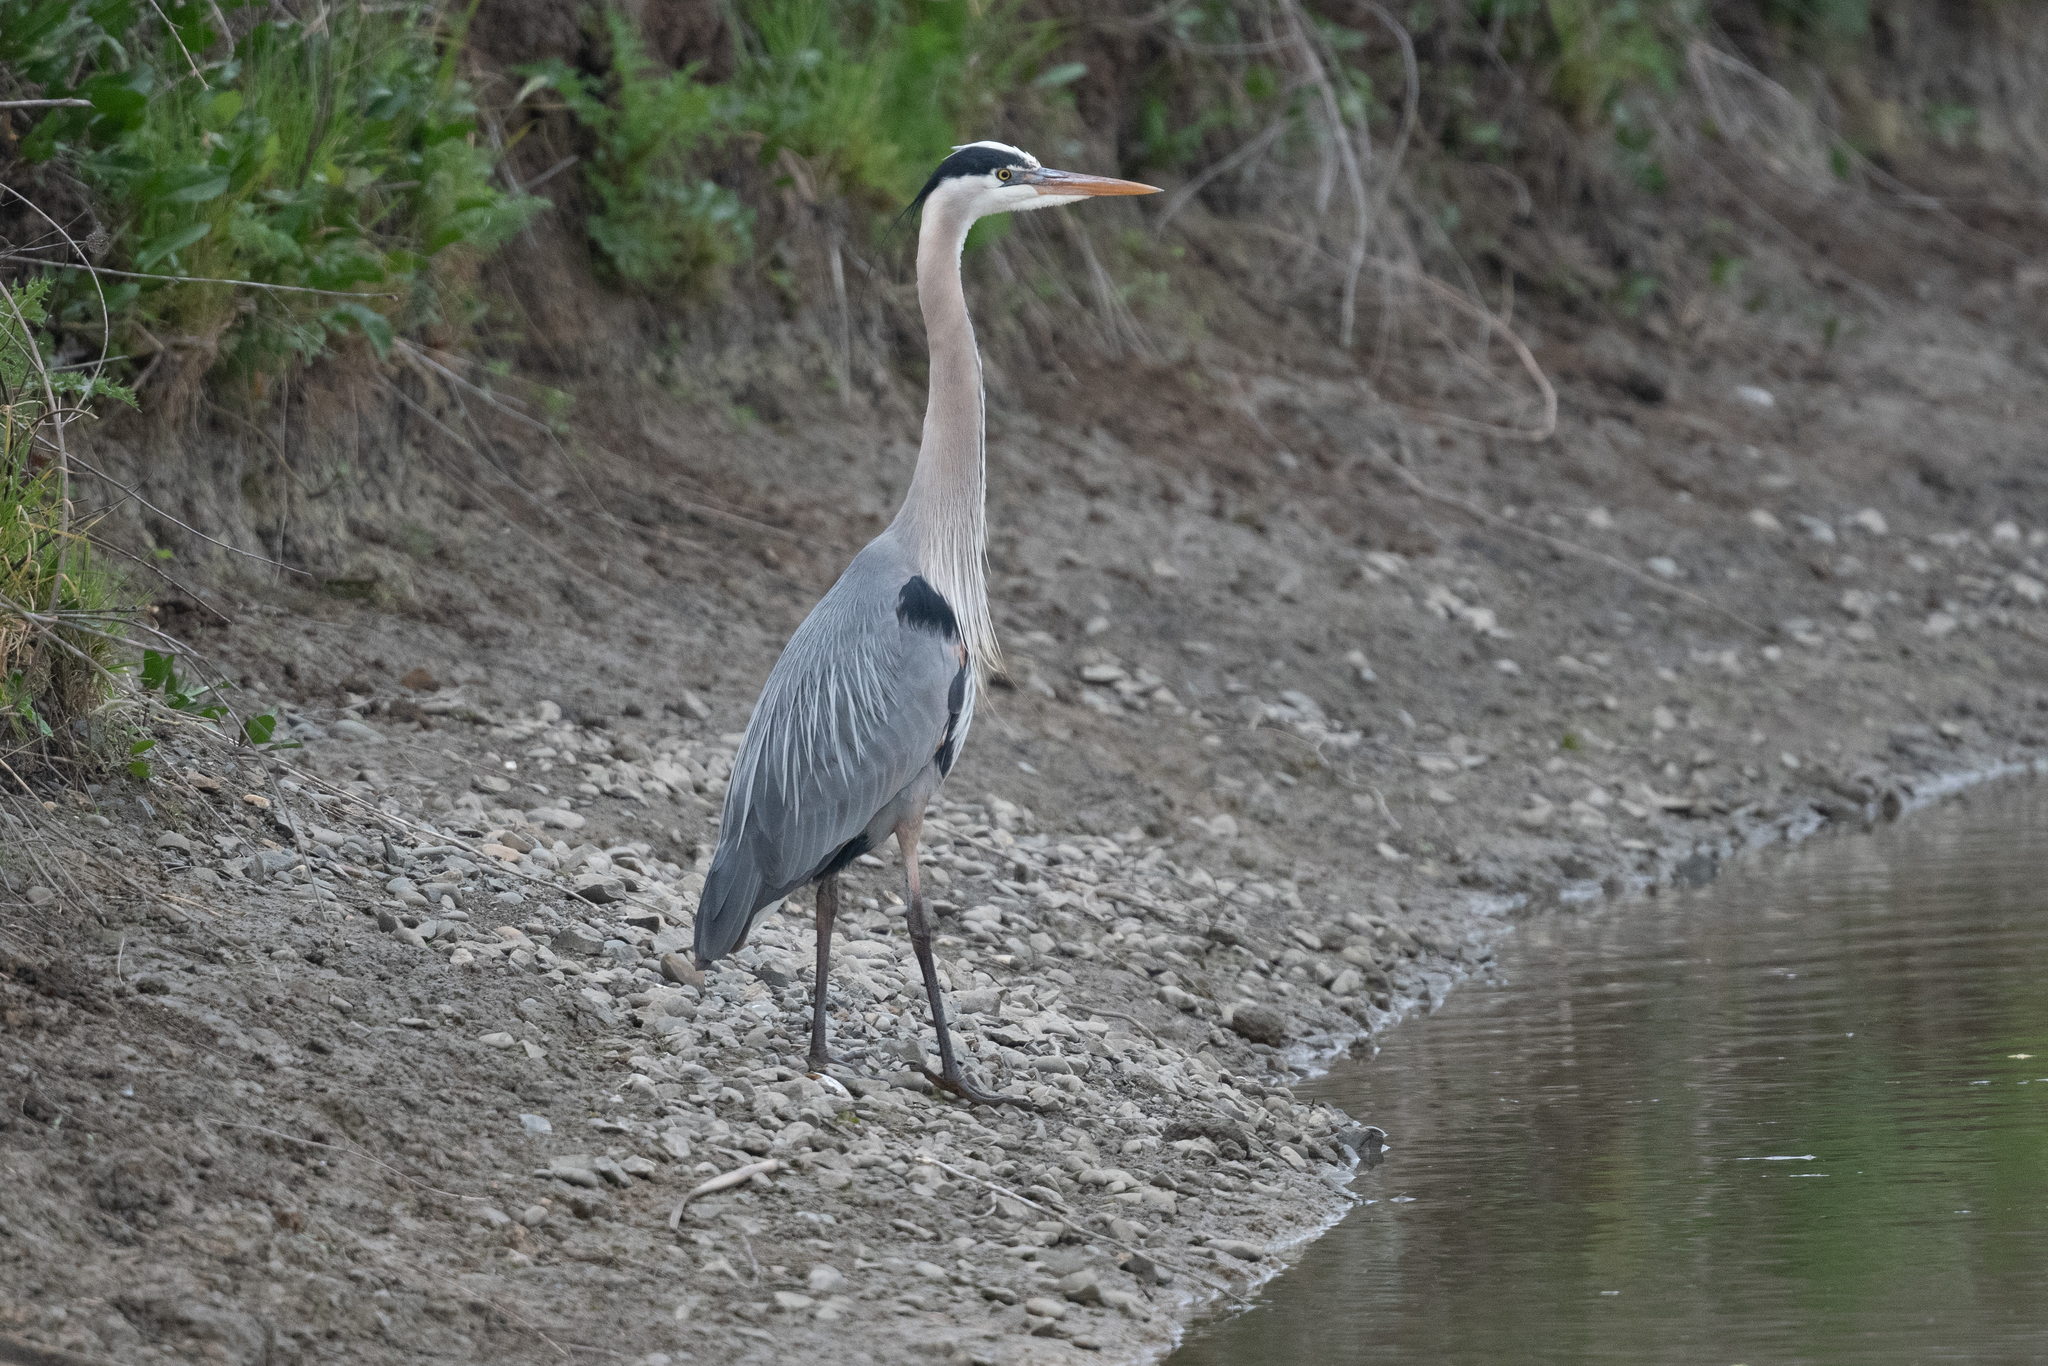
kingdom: Animalia
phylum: Chordata
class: Aves
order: Pelecaniformes
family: Ardeidae
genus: Ardea
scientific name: Ardea herodias
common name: Great blue heron
